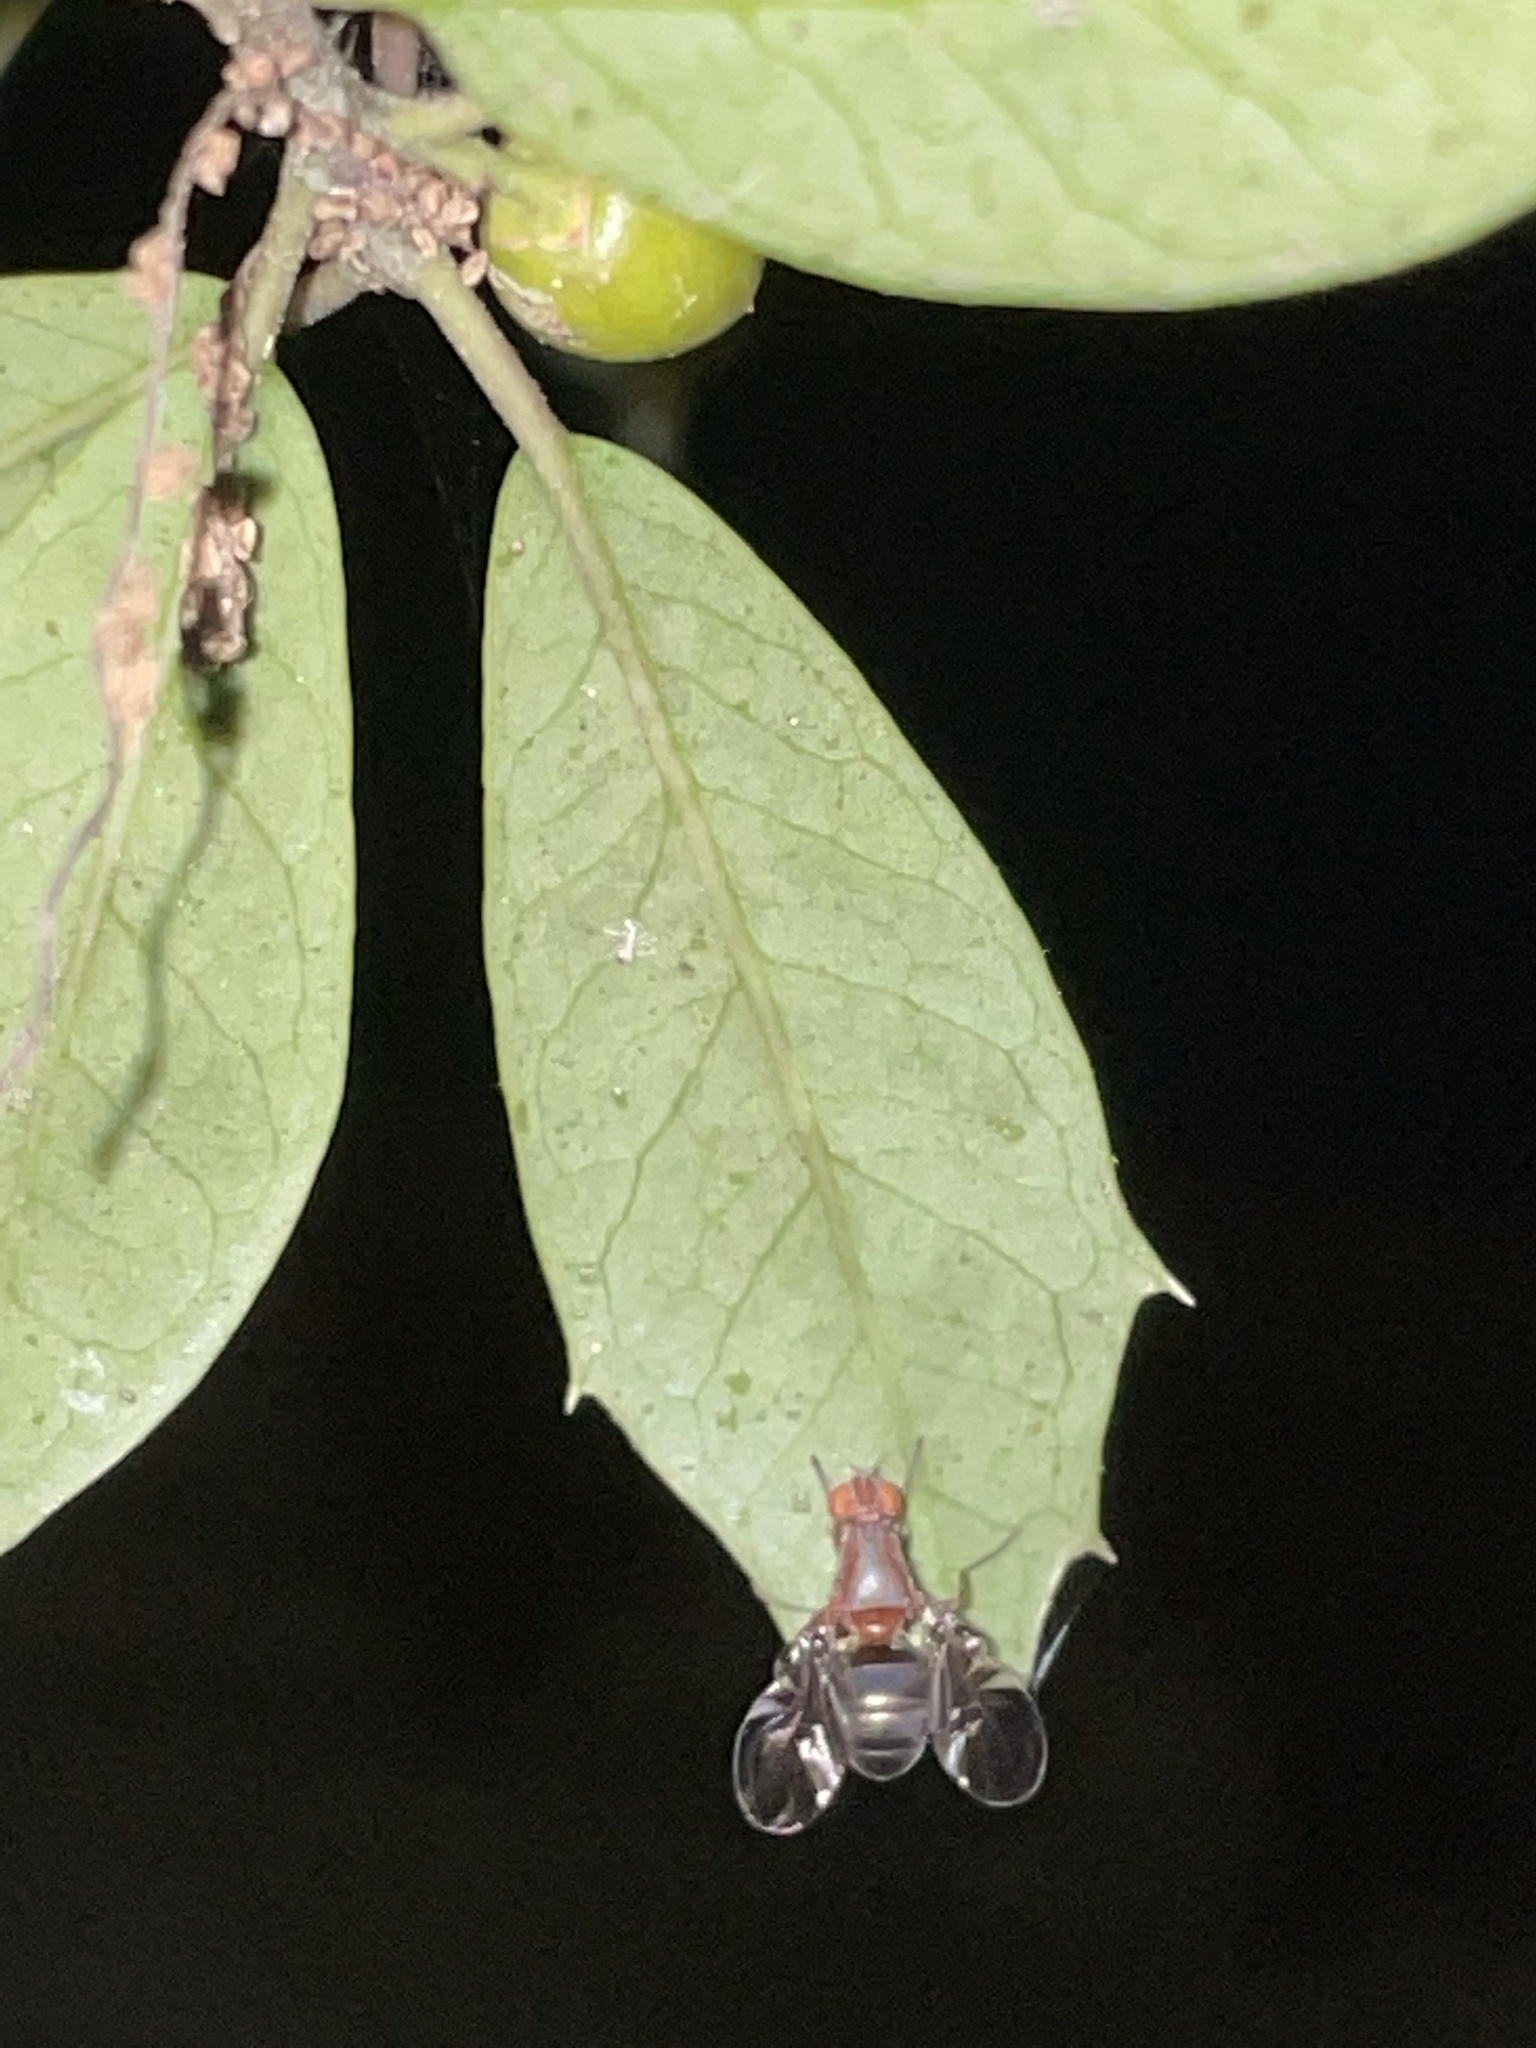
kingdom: Animalia
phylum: Arthropoda
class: Insecta
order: Diptera
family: Ulidiidae
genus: Delphinia
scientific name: Delphinia picta
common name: Common picture-winged fly
